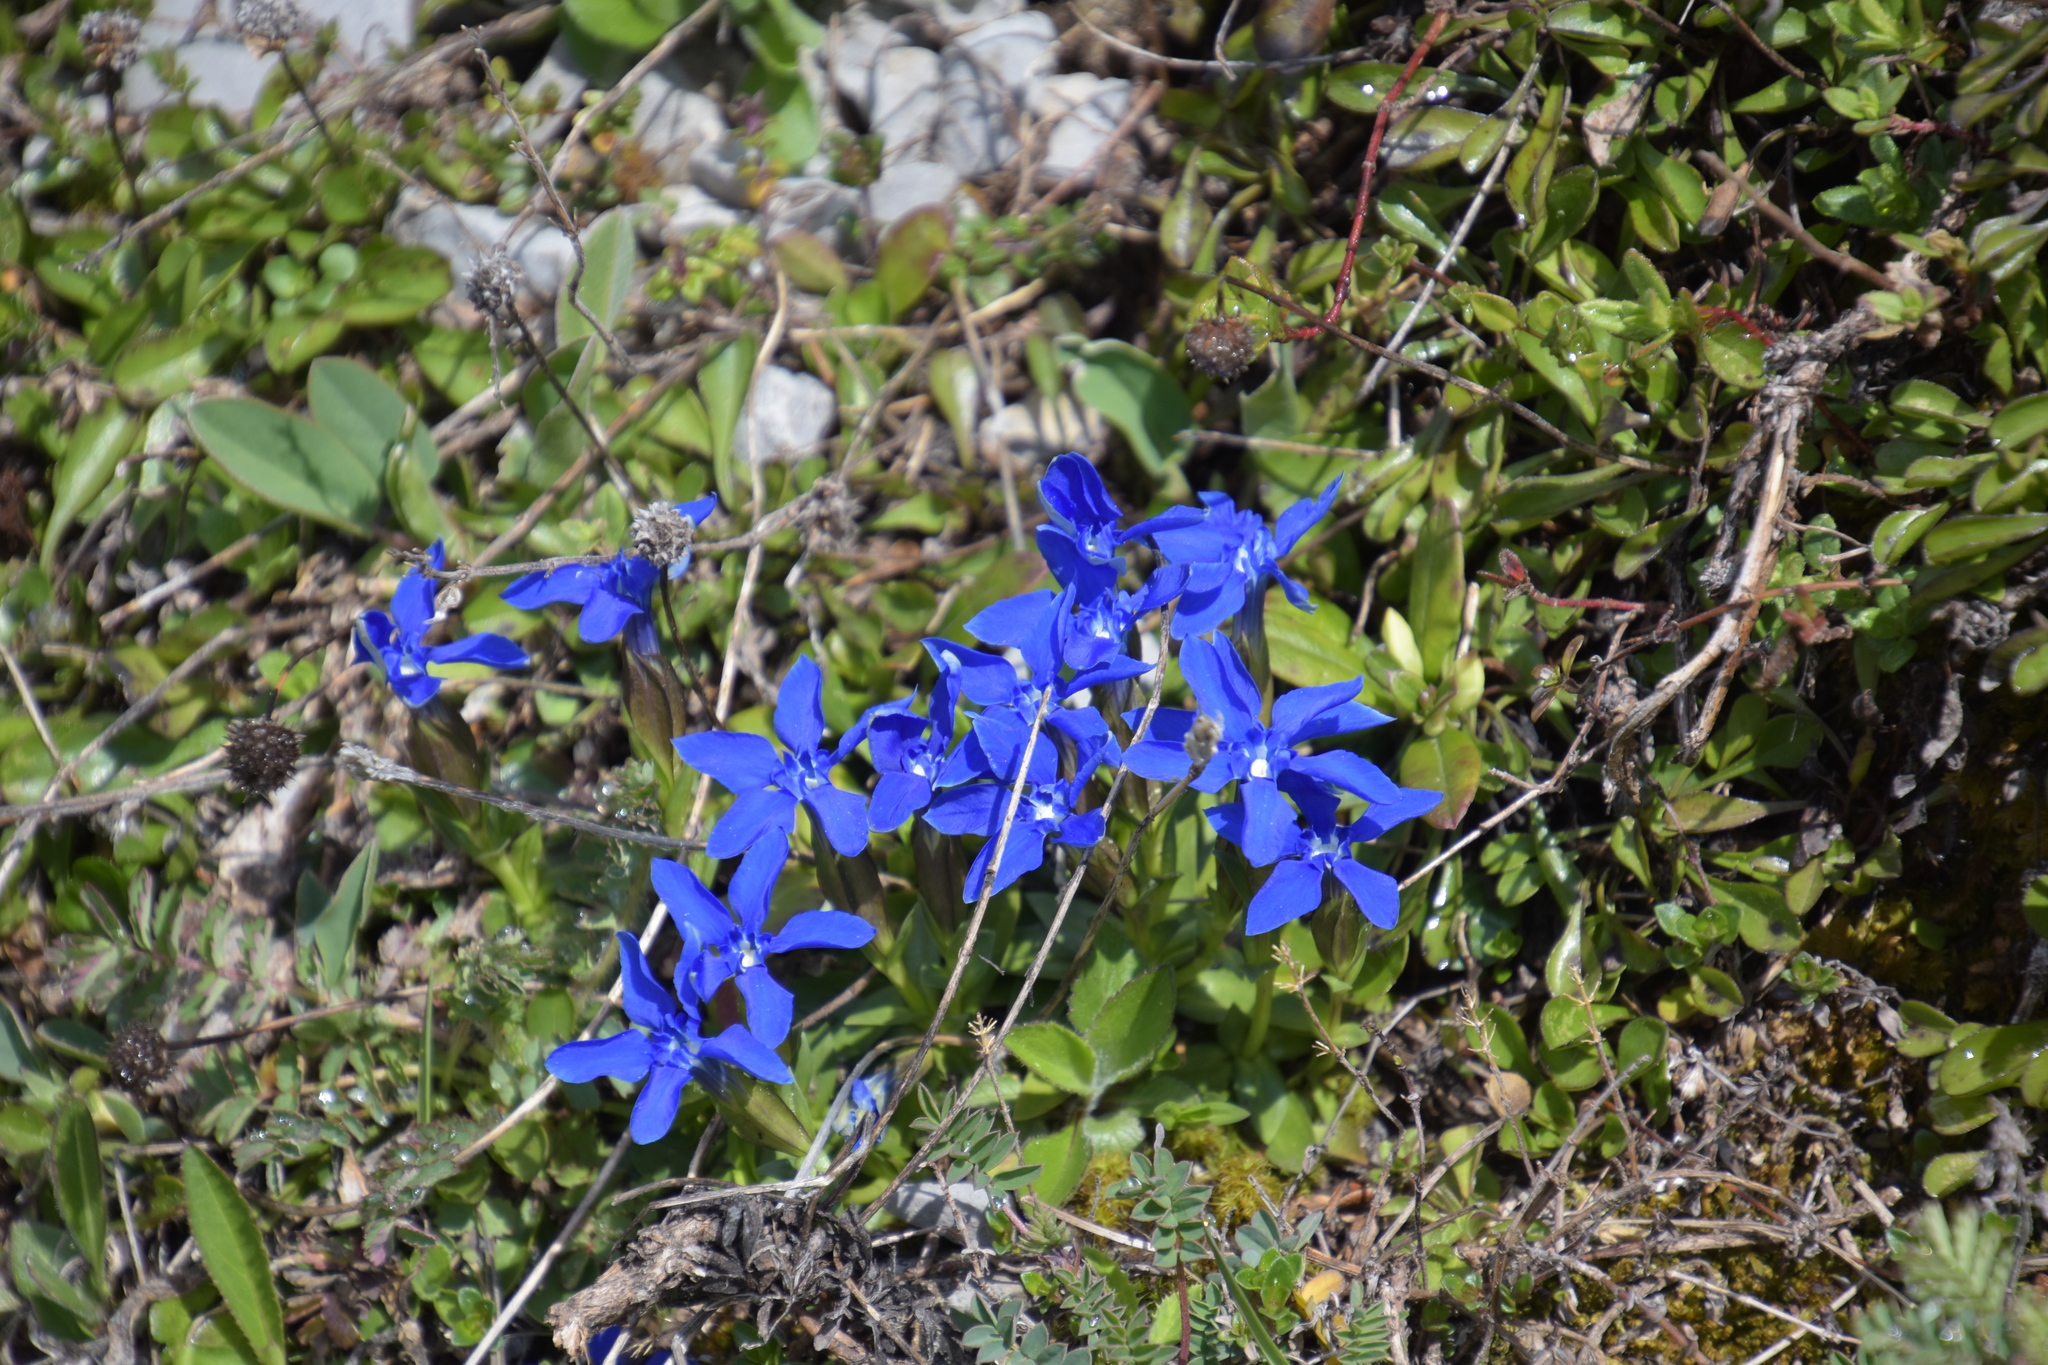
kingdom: Plantae
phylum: Tracheophyta
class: Magnoliopsida
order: Gentianales
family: Gentianaceae
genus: Gentiana
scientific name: Gentiana verna
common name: Spring gentian
